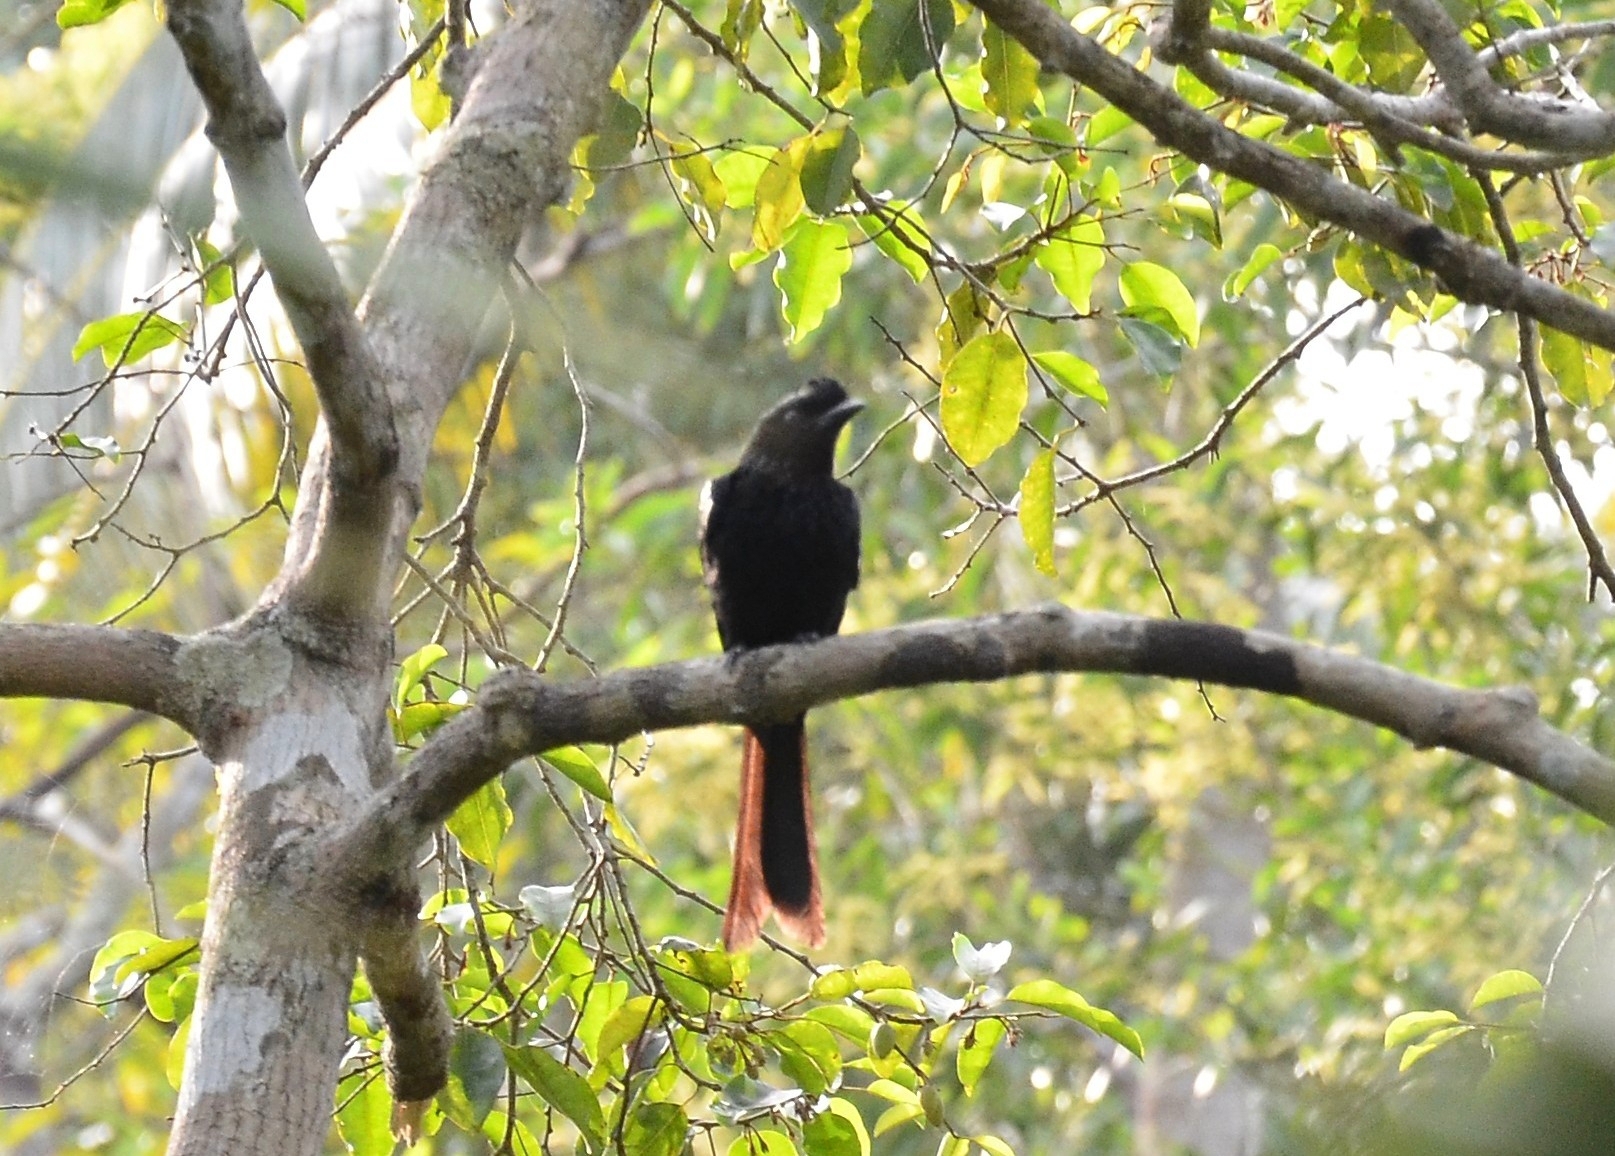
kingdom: Animalia
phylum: Chordata
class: Aves
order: Passeriformes
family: Dicruridae
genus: Dicrurus
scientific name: Dicrurus paradiseus
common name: Greater racket-tailed drongo
